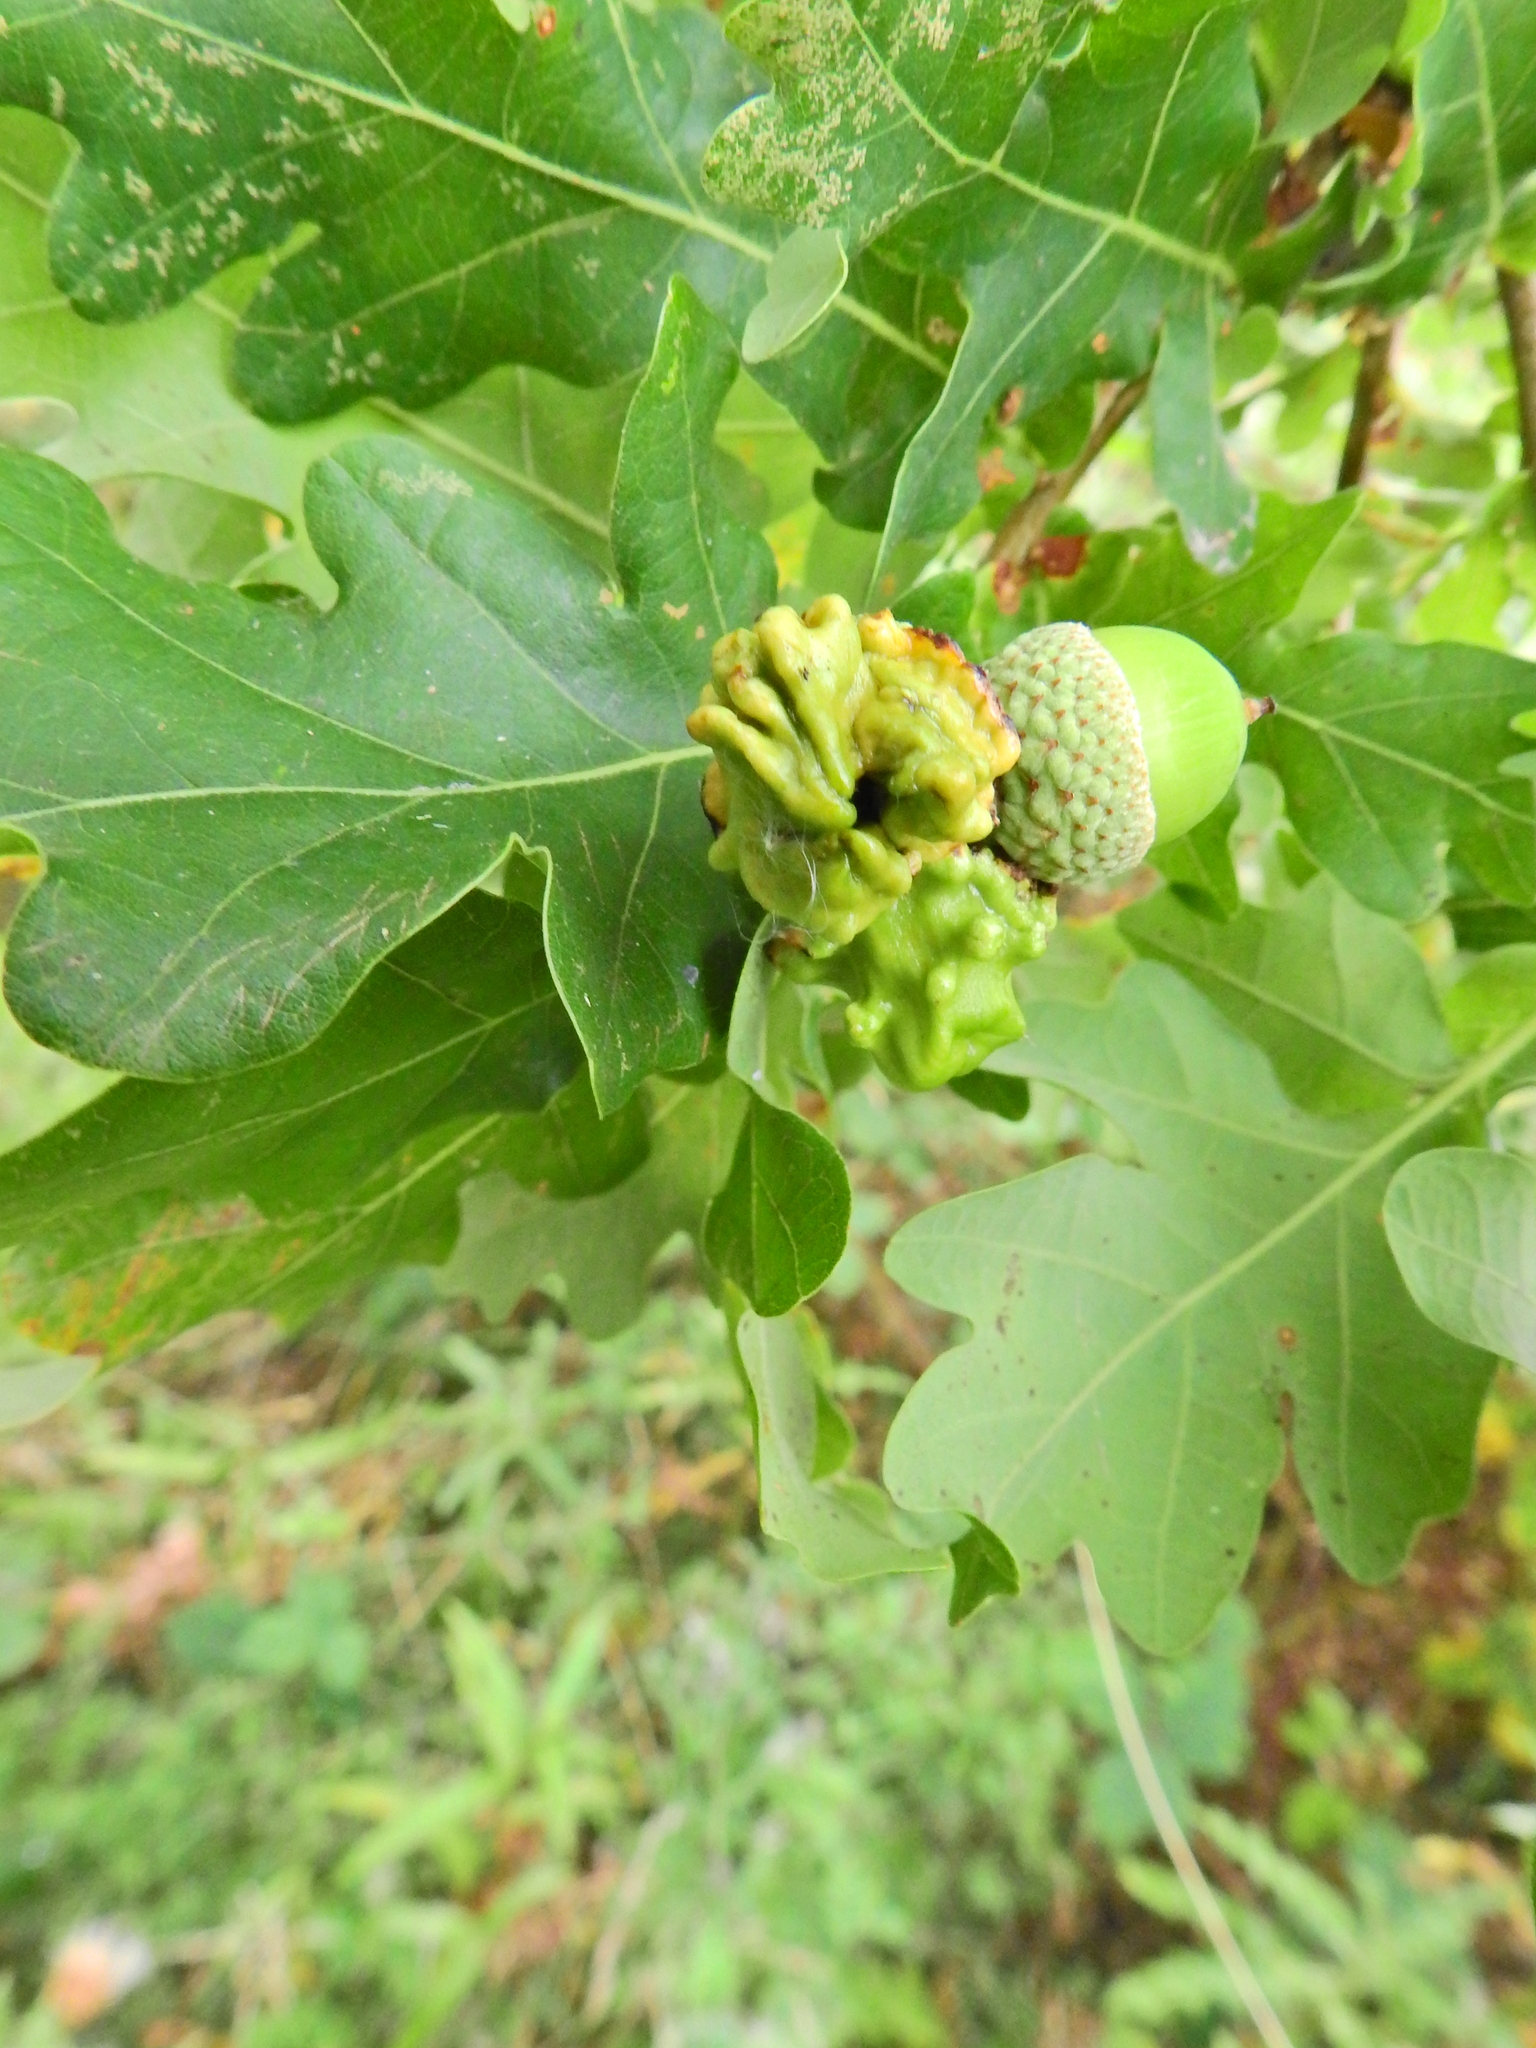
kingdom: Animalia
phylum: Arthropoda
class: Insecta
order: Hymenoptera
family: Cynipidae
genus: Andricus
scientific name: Andricus quercuscalicis
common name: Knopper gall
